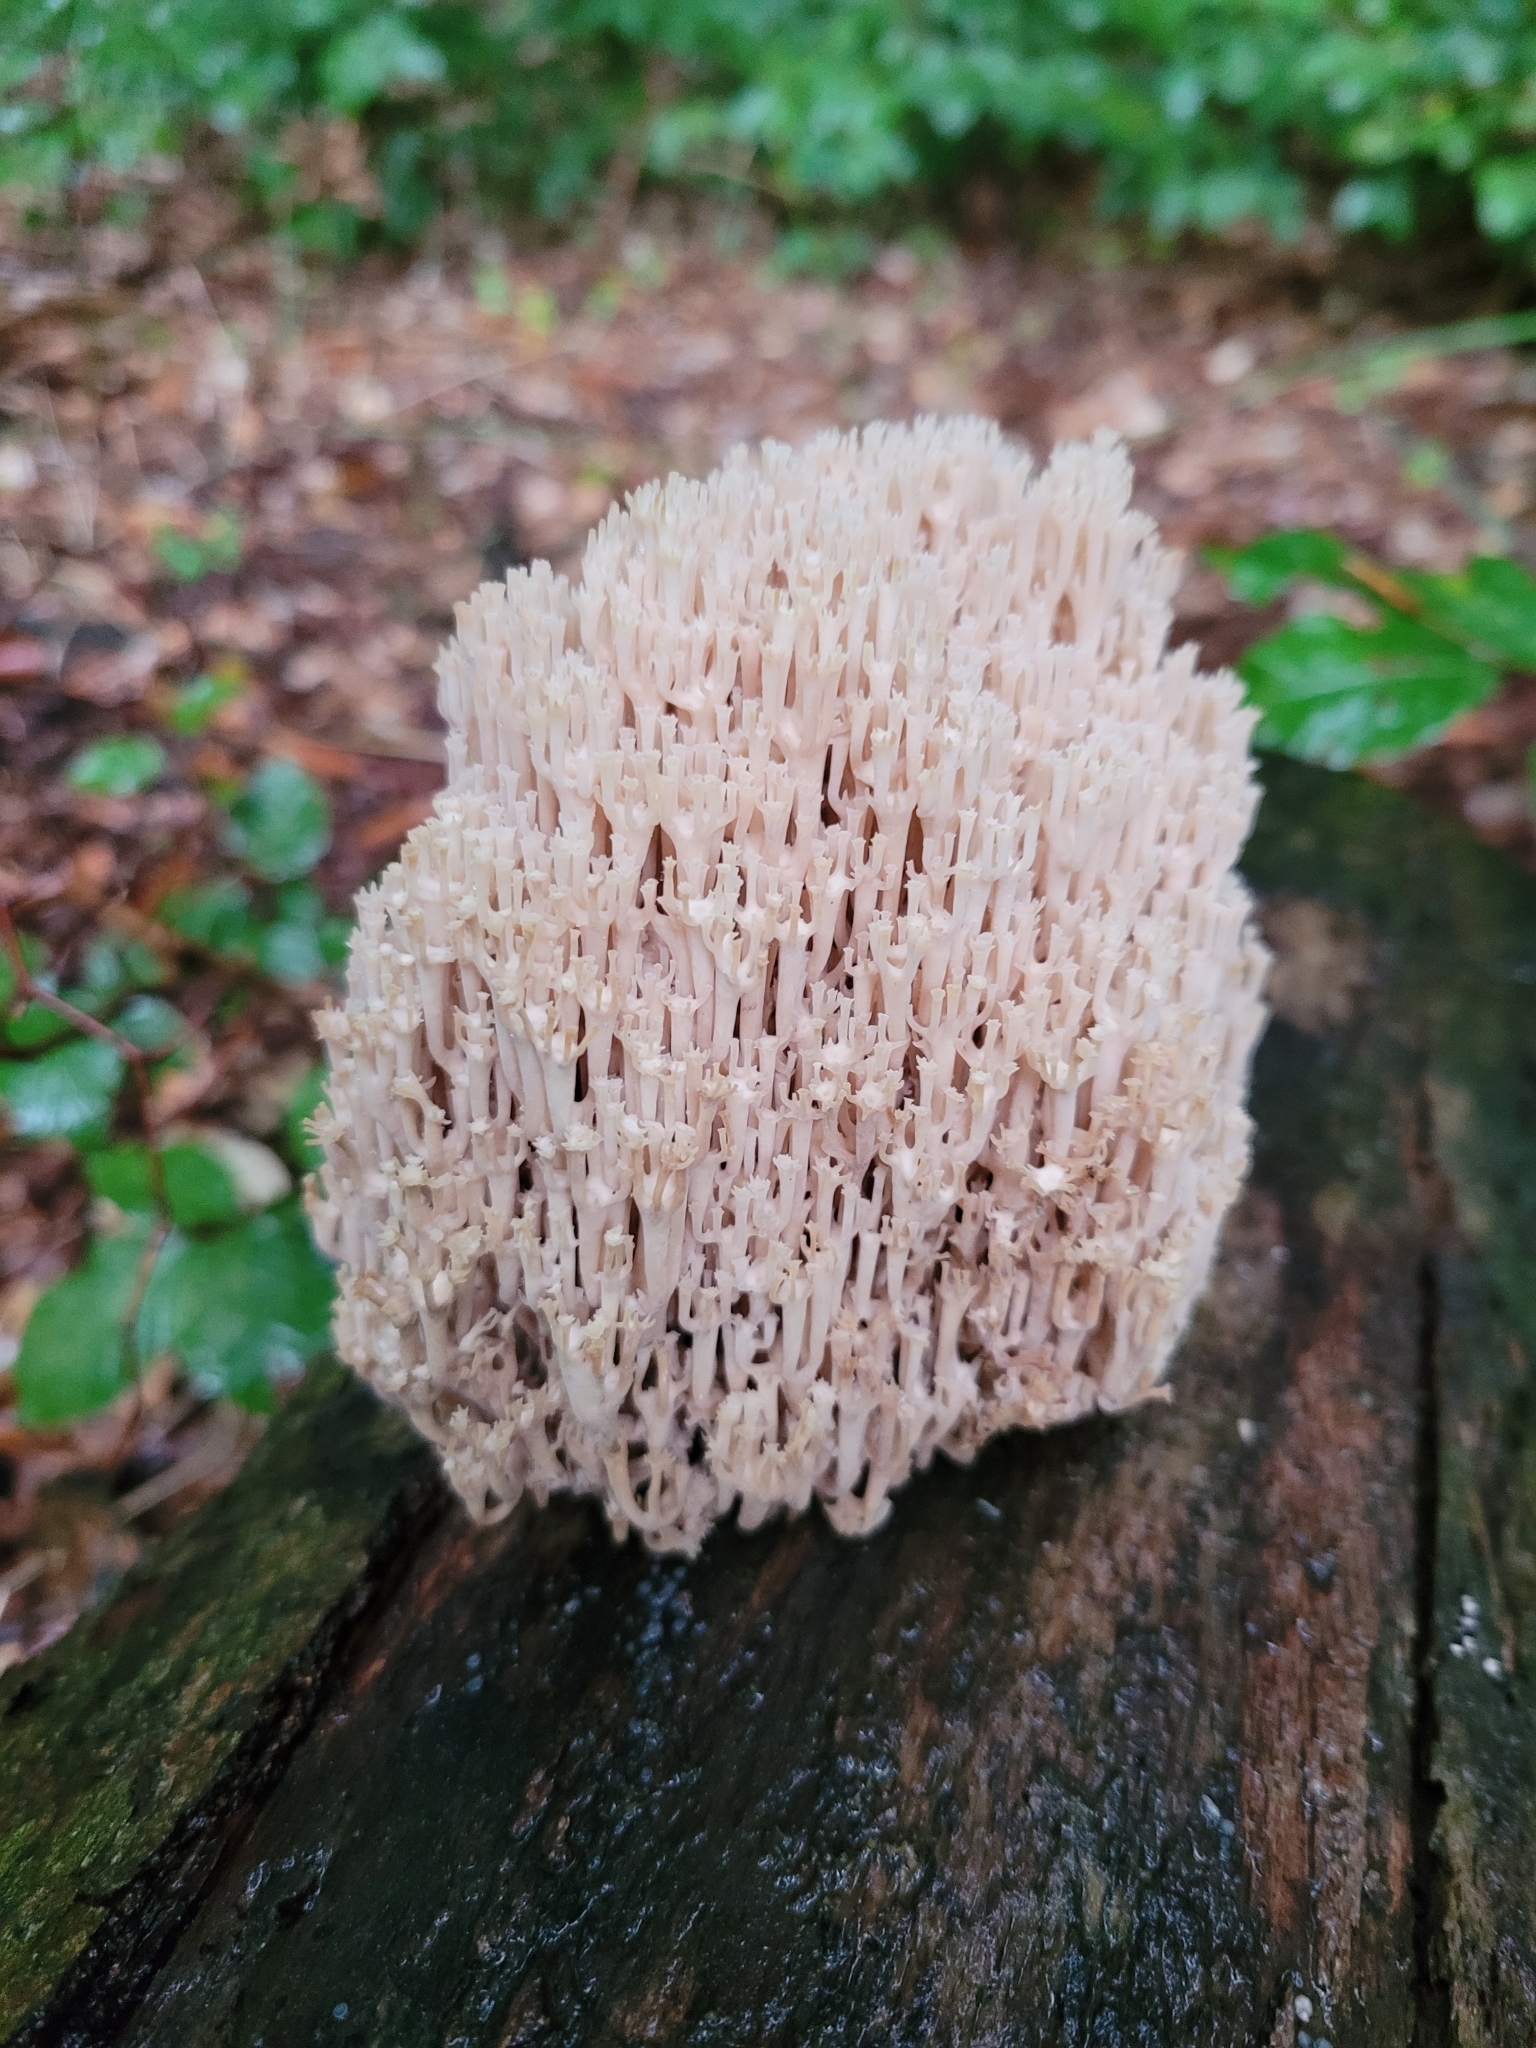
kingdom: Fungi
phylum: Basidiomycota
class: Agaricomycetes
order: Russulales
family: Auriscalpiaceae
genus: Artomyces
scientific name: Artomyces pyxidatus
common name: Crown-tipped coral fungus
